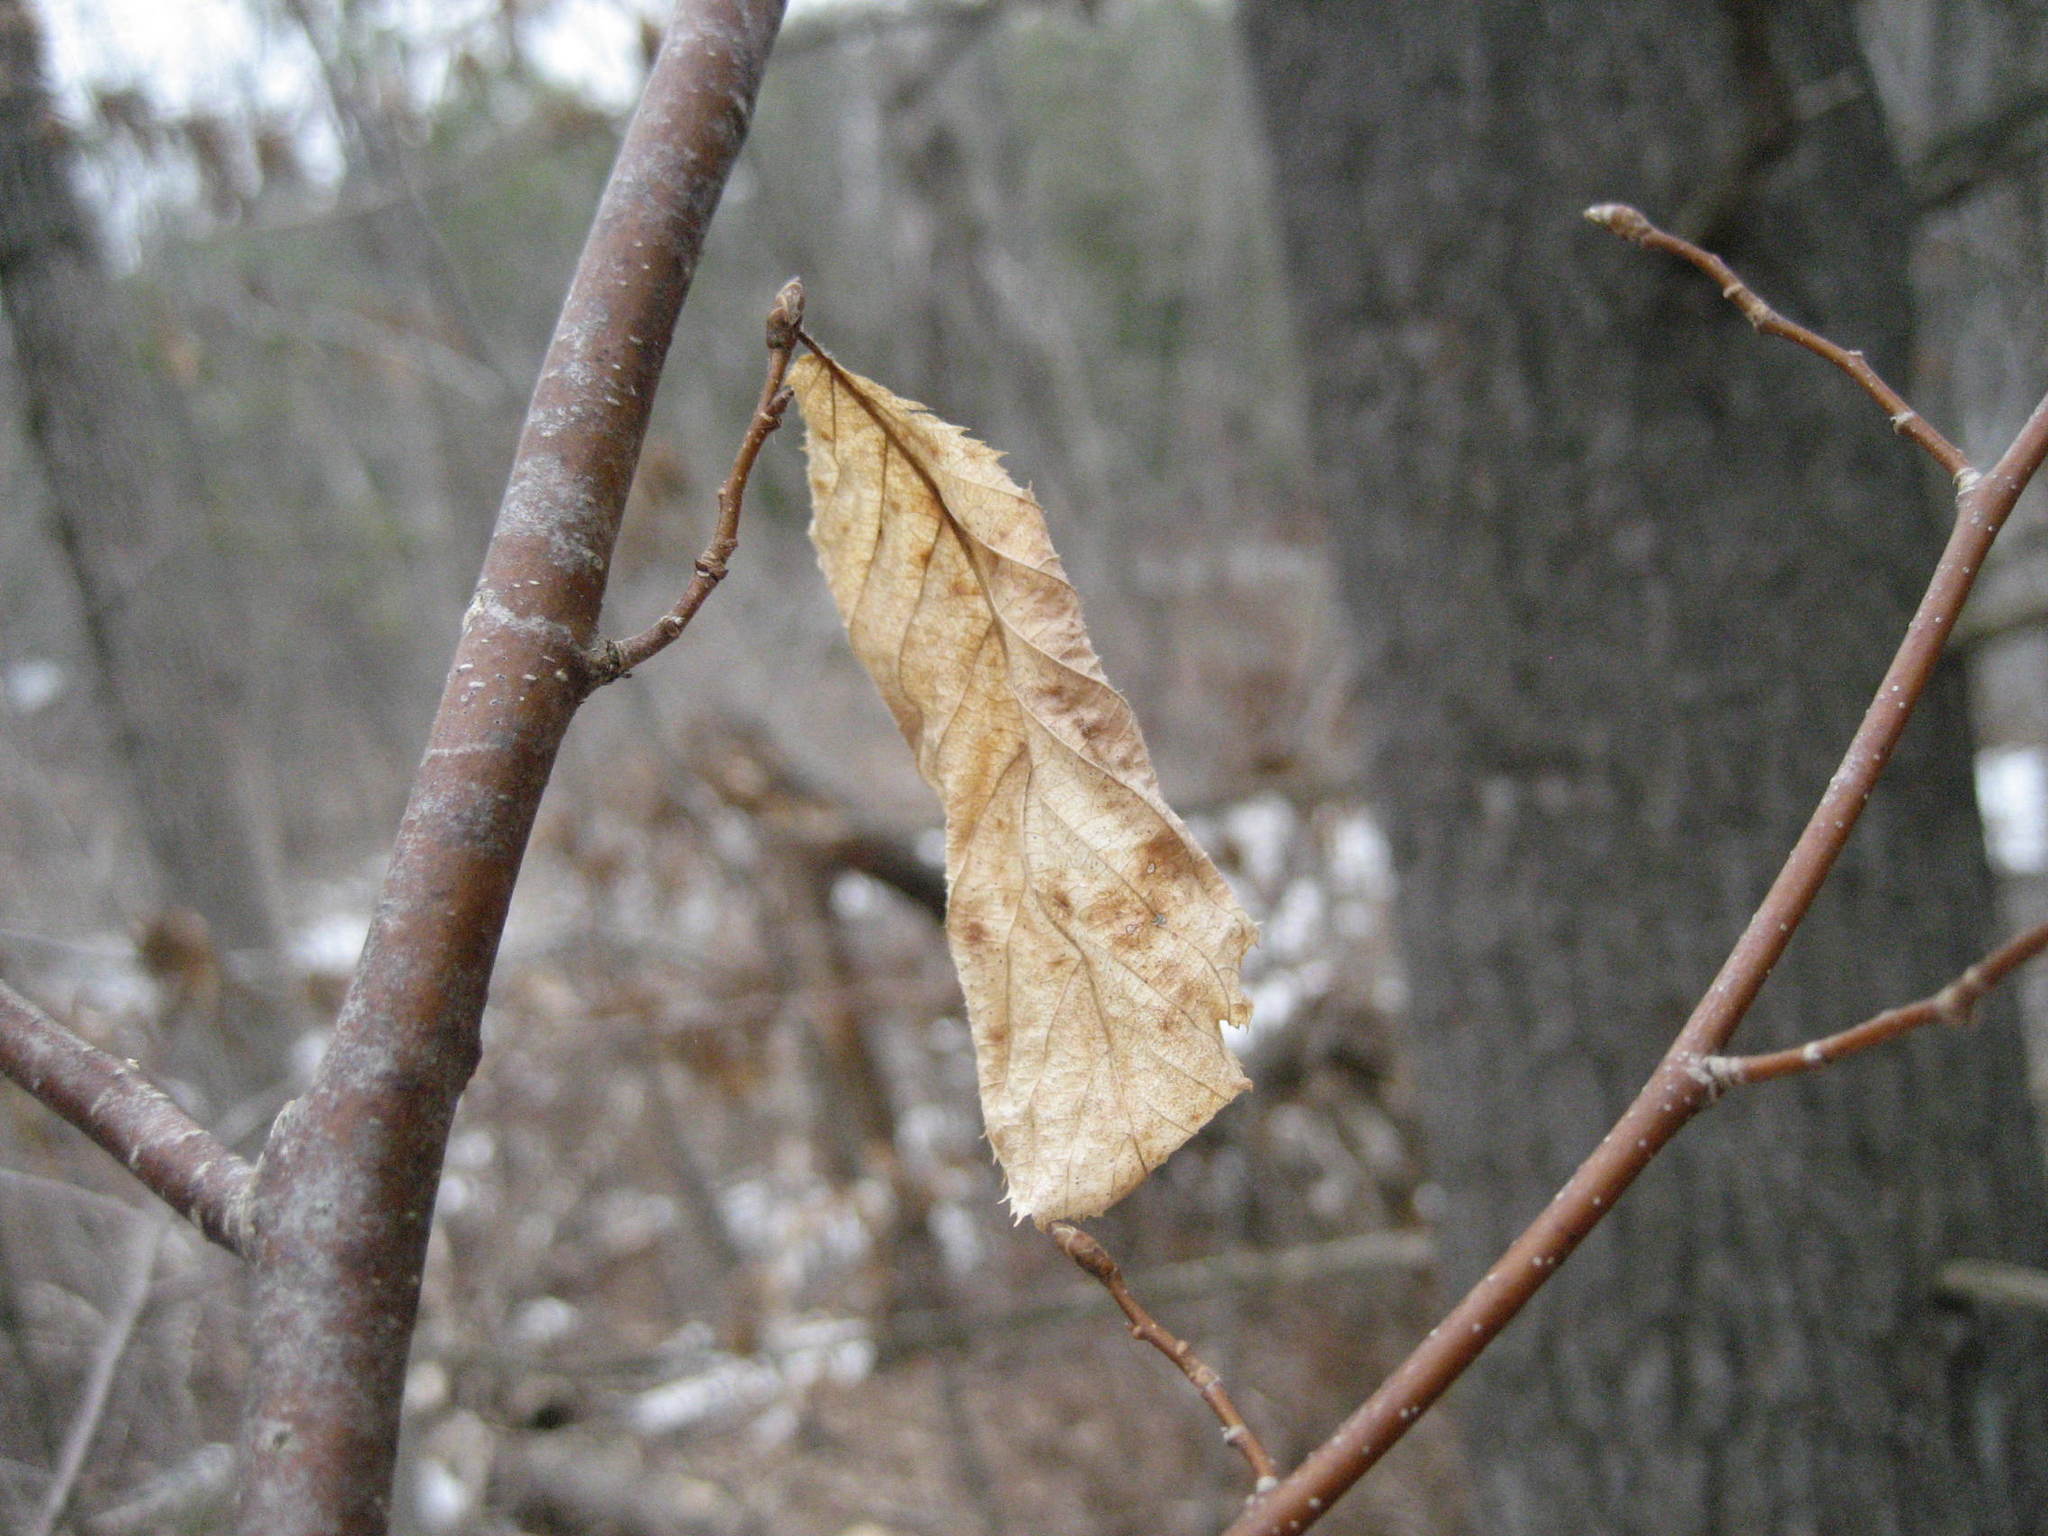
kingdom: Plantae
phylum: Tracheophyta
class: Magnoliopsida
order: Fagales
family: Betulaceae
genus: Ostrya
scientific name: Ostrya virginiana
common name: Ironwood
